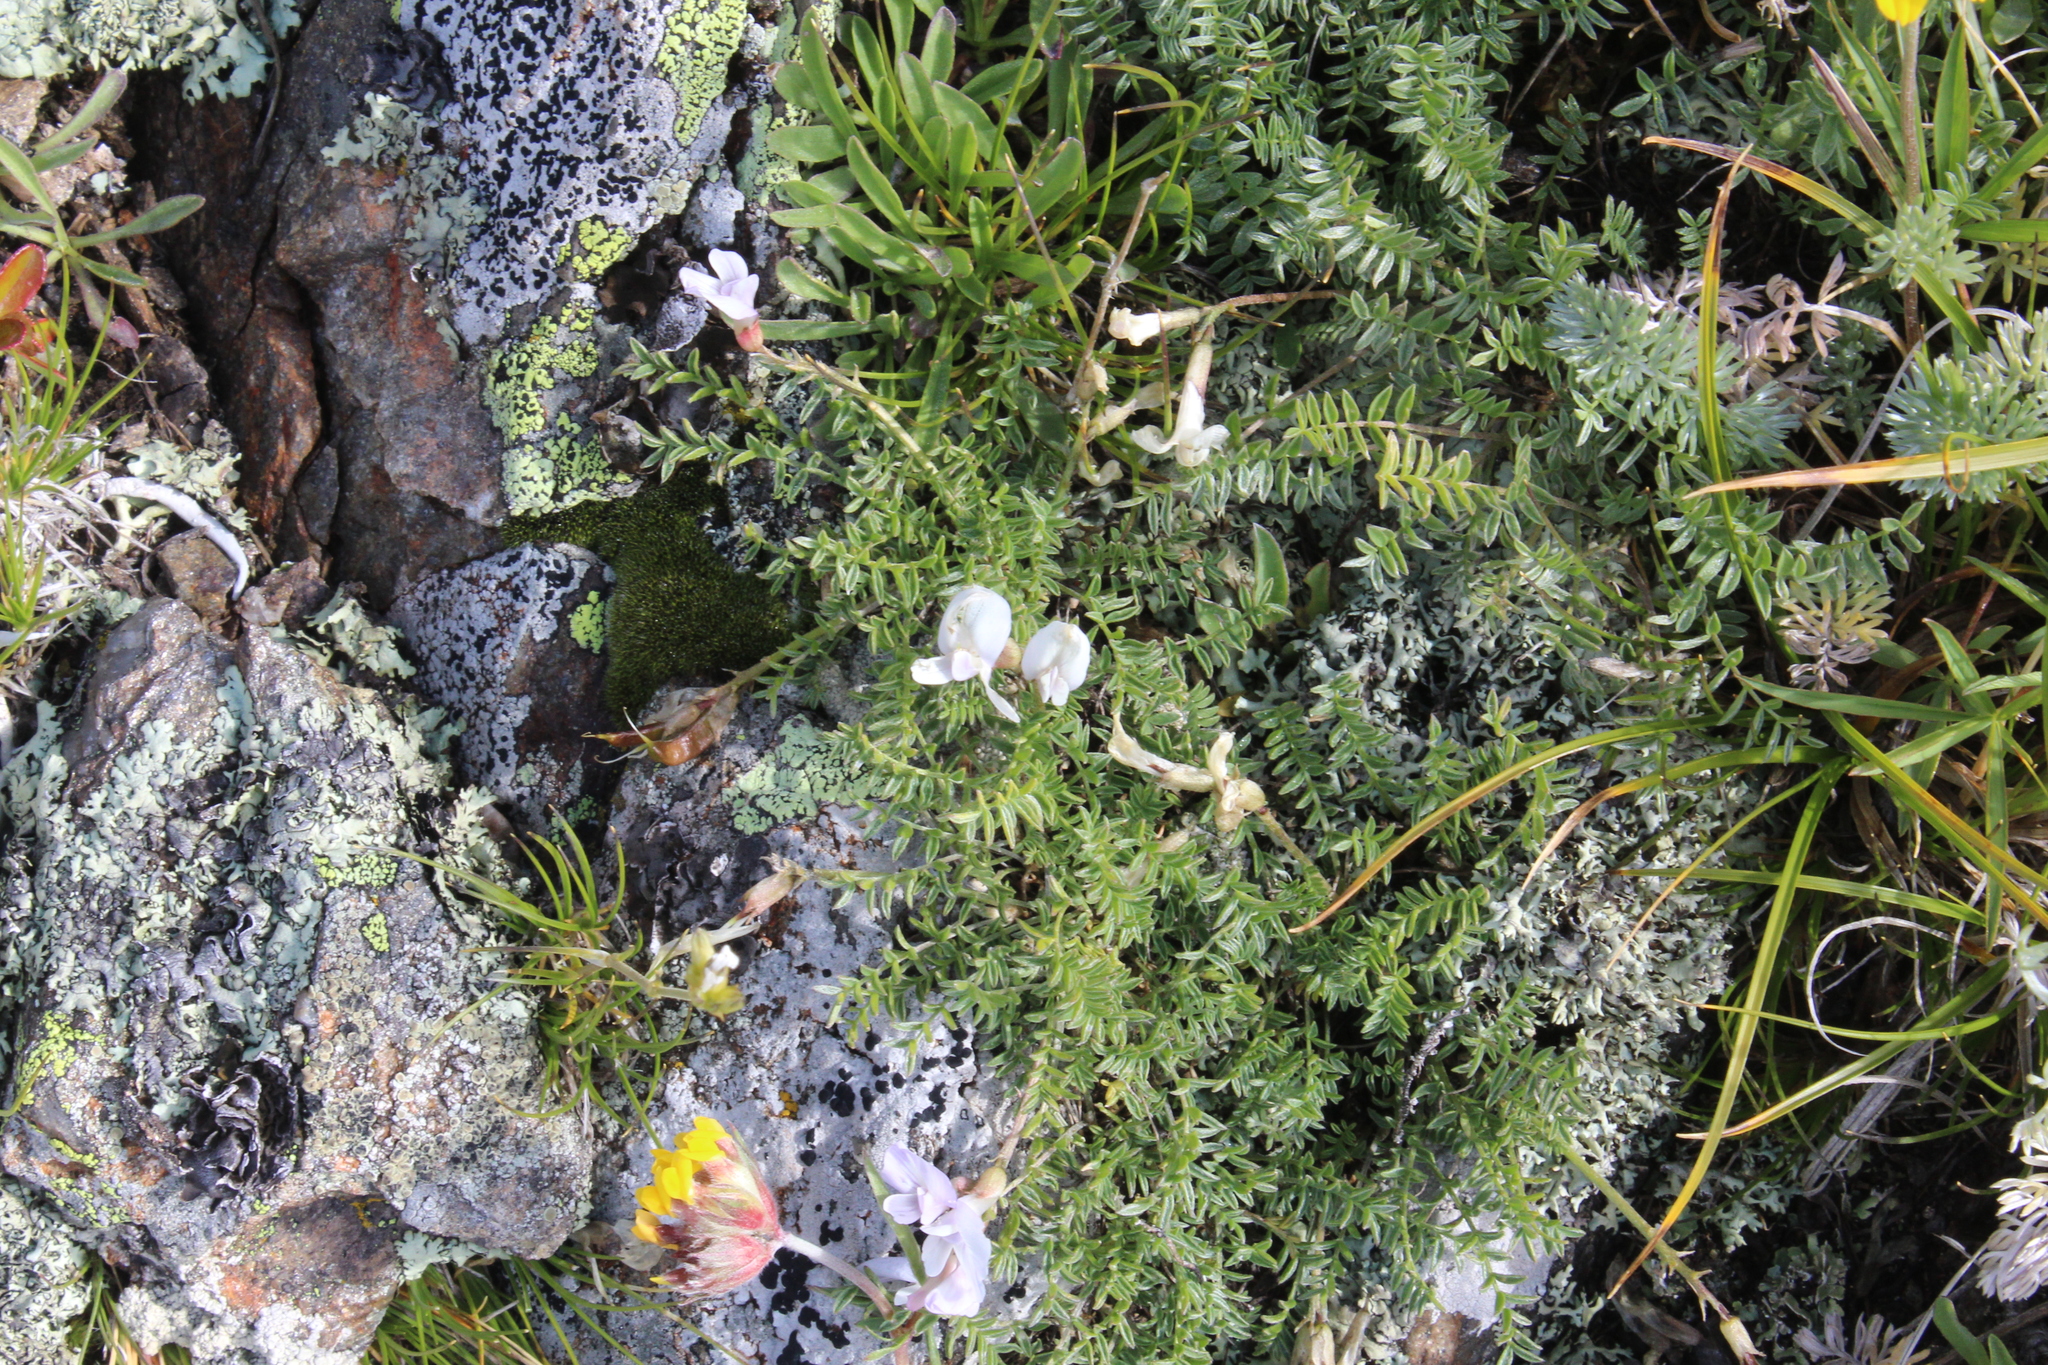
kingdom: Plantae
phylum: Tracheophyta
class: Magnoliopsida
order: Fabales
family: Fabaceae
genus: Astragalus
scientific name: Astragalus levieri
